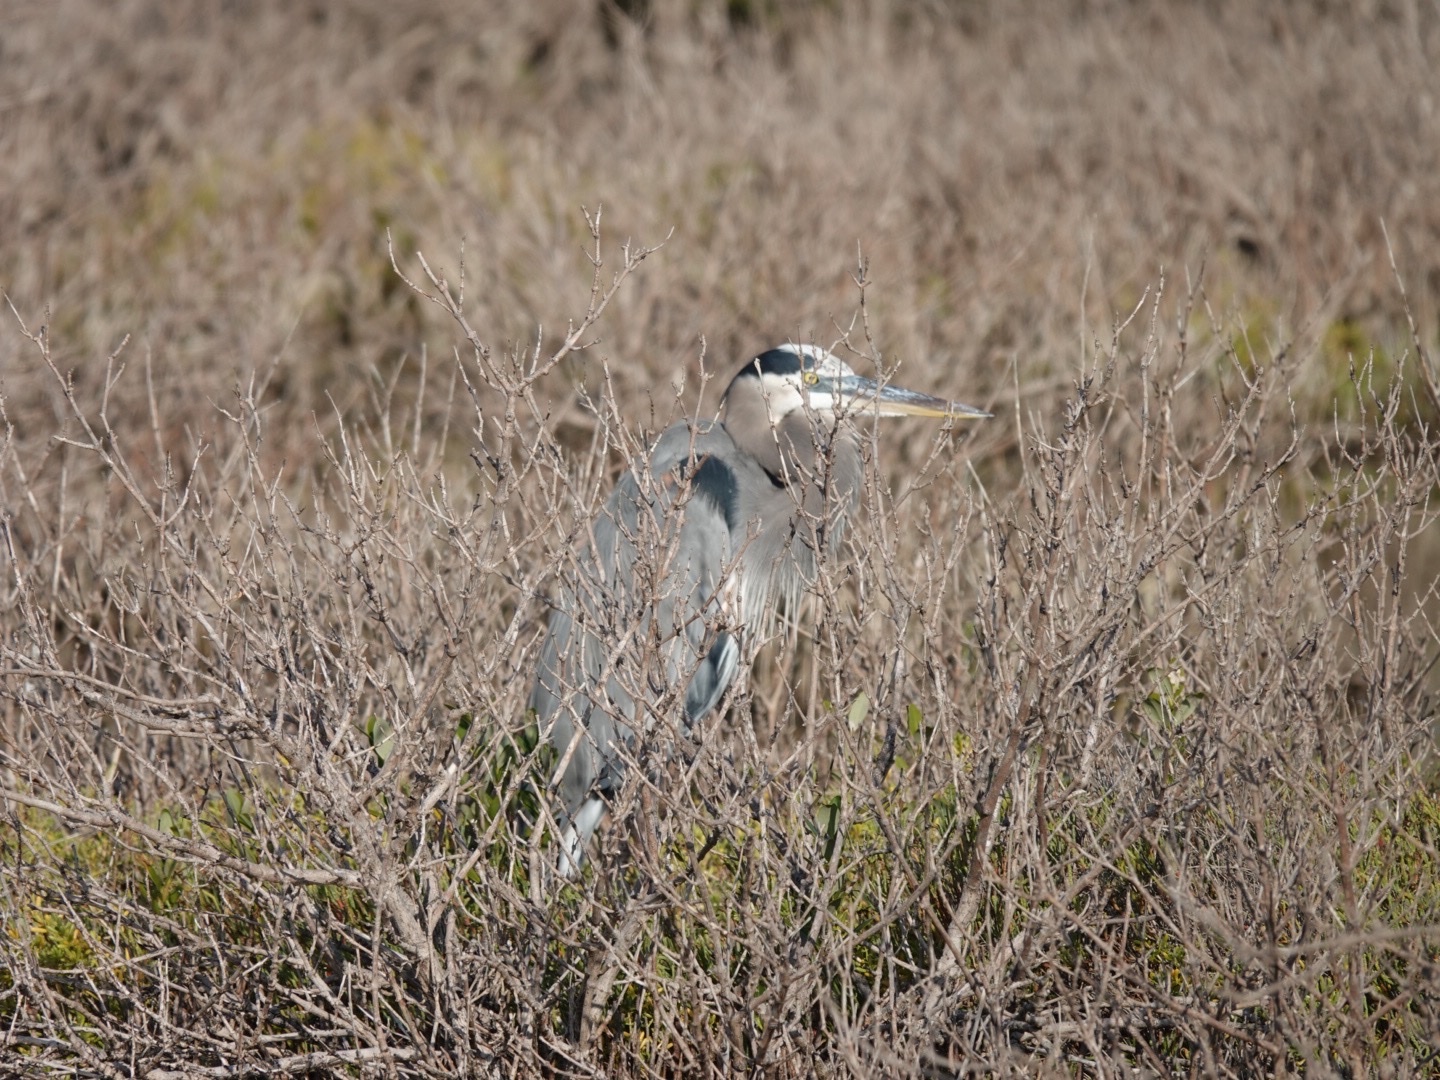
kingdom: Animalia
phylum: Chordata
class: Aves
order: Pelecaniformes
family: Ardeidae
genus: Ardea
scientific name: Ardea herodias
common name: Great blue heron
